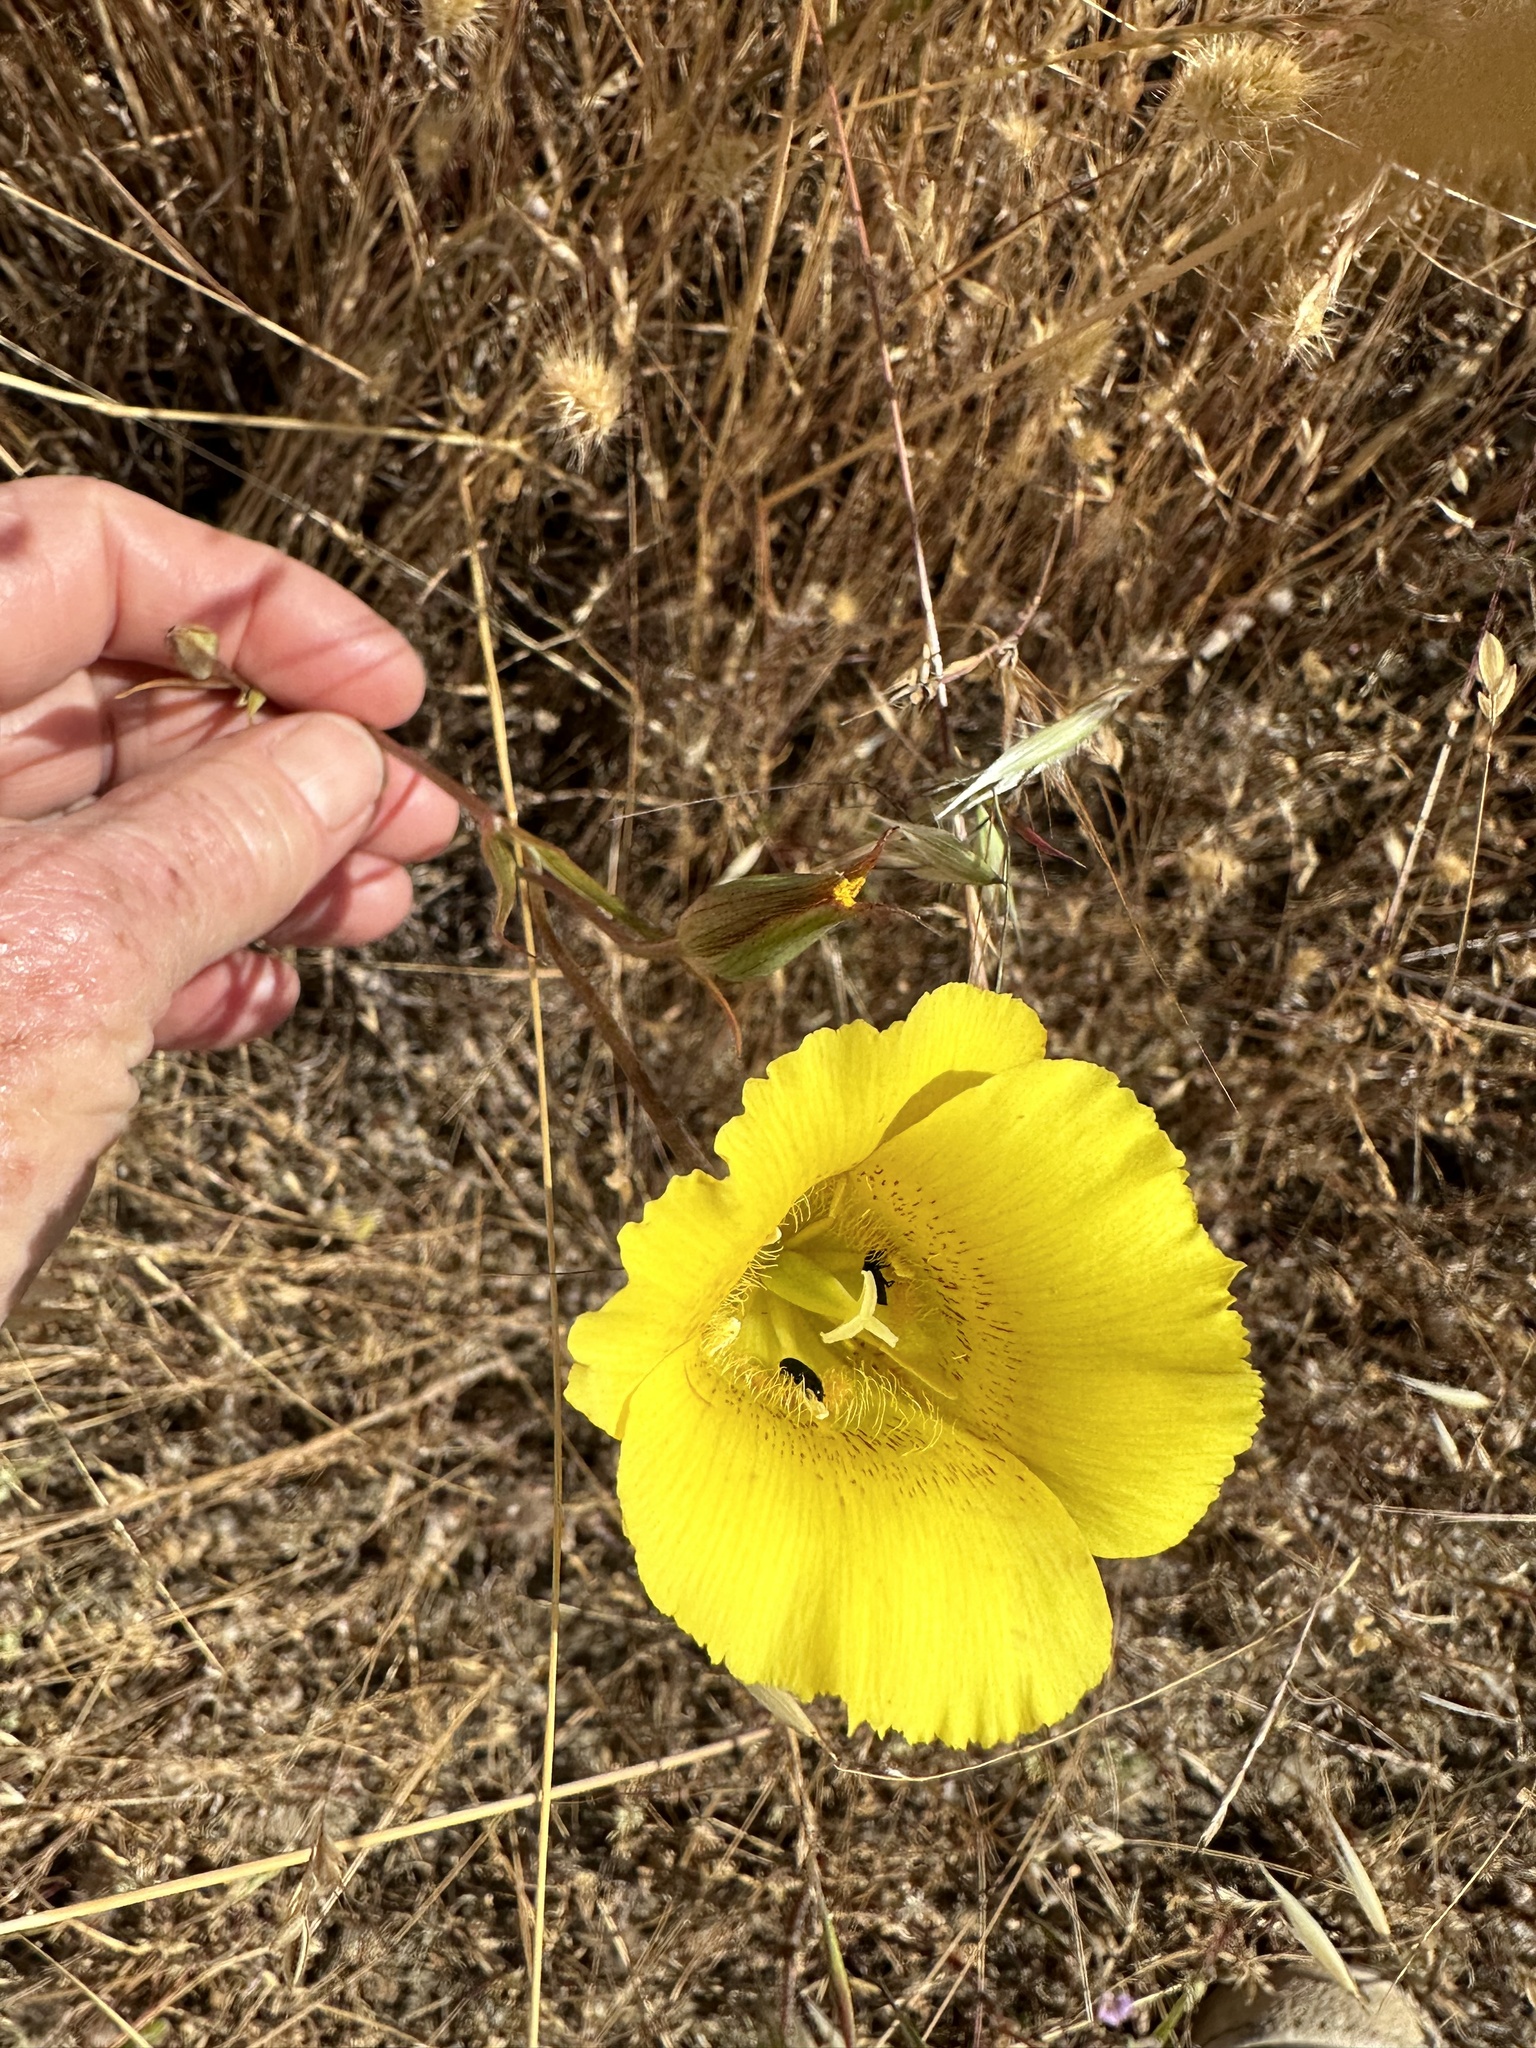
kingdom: Plantae
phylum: Tracheophyta
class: Liliopsida
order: Liliales
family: Liliaceae
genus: Calochortus
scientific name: Calochortus luteus
